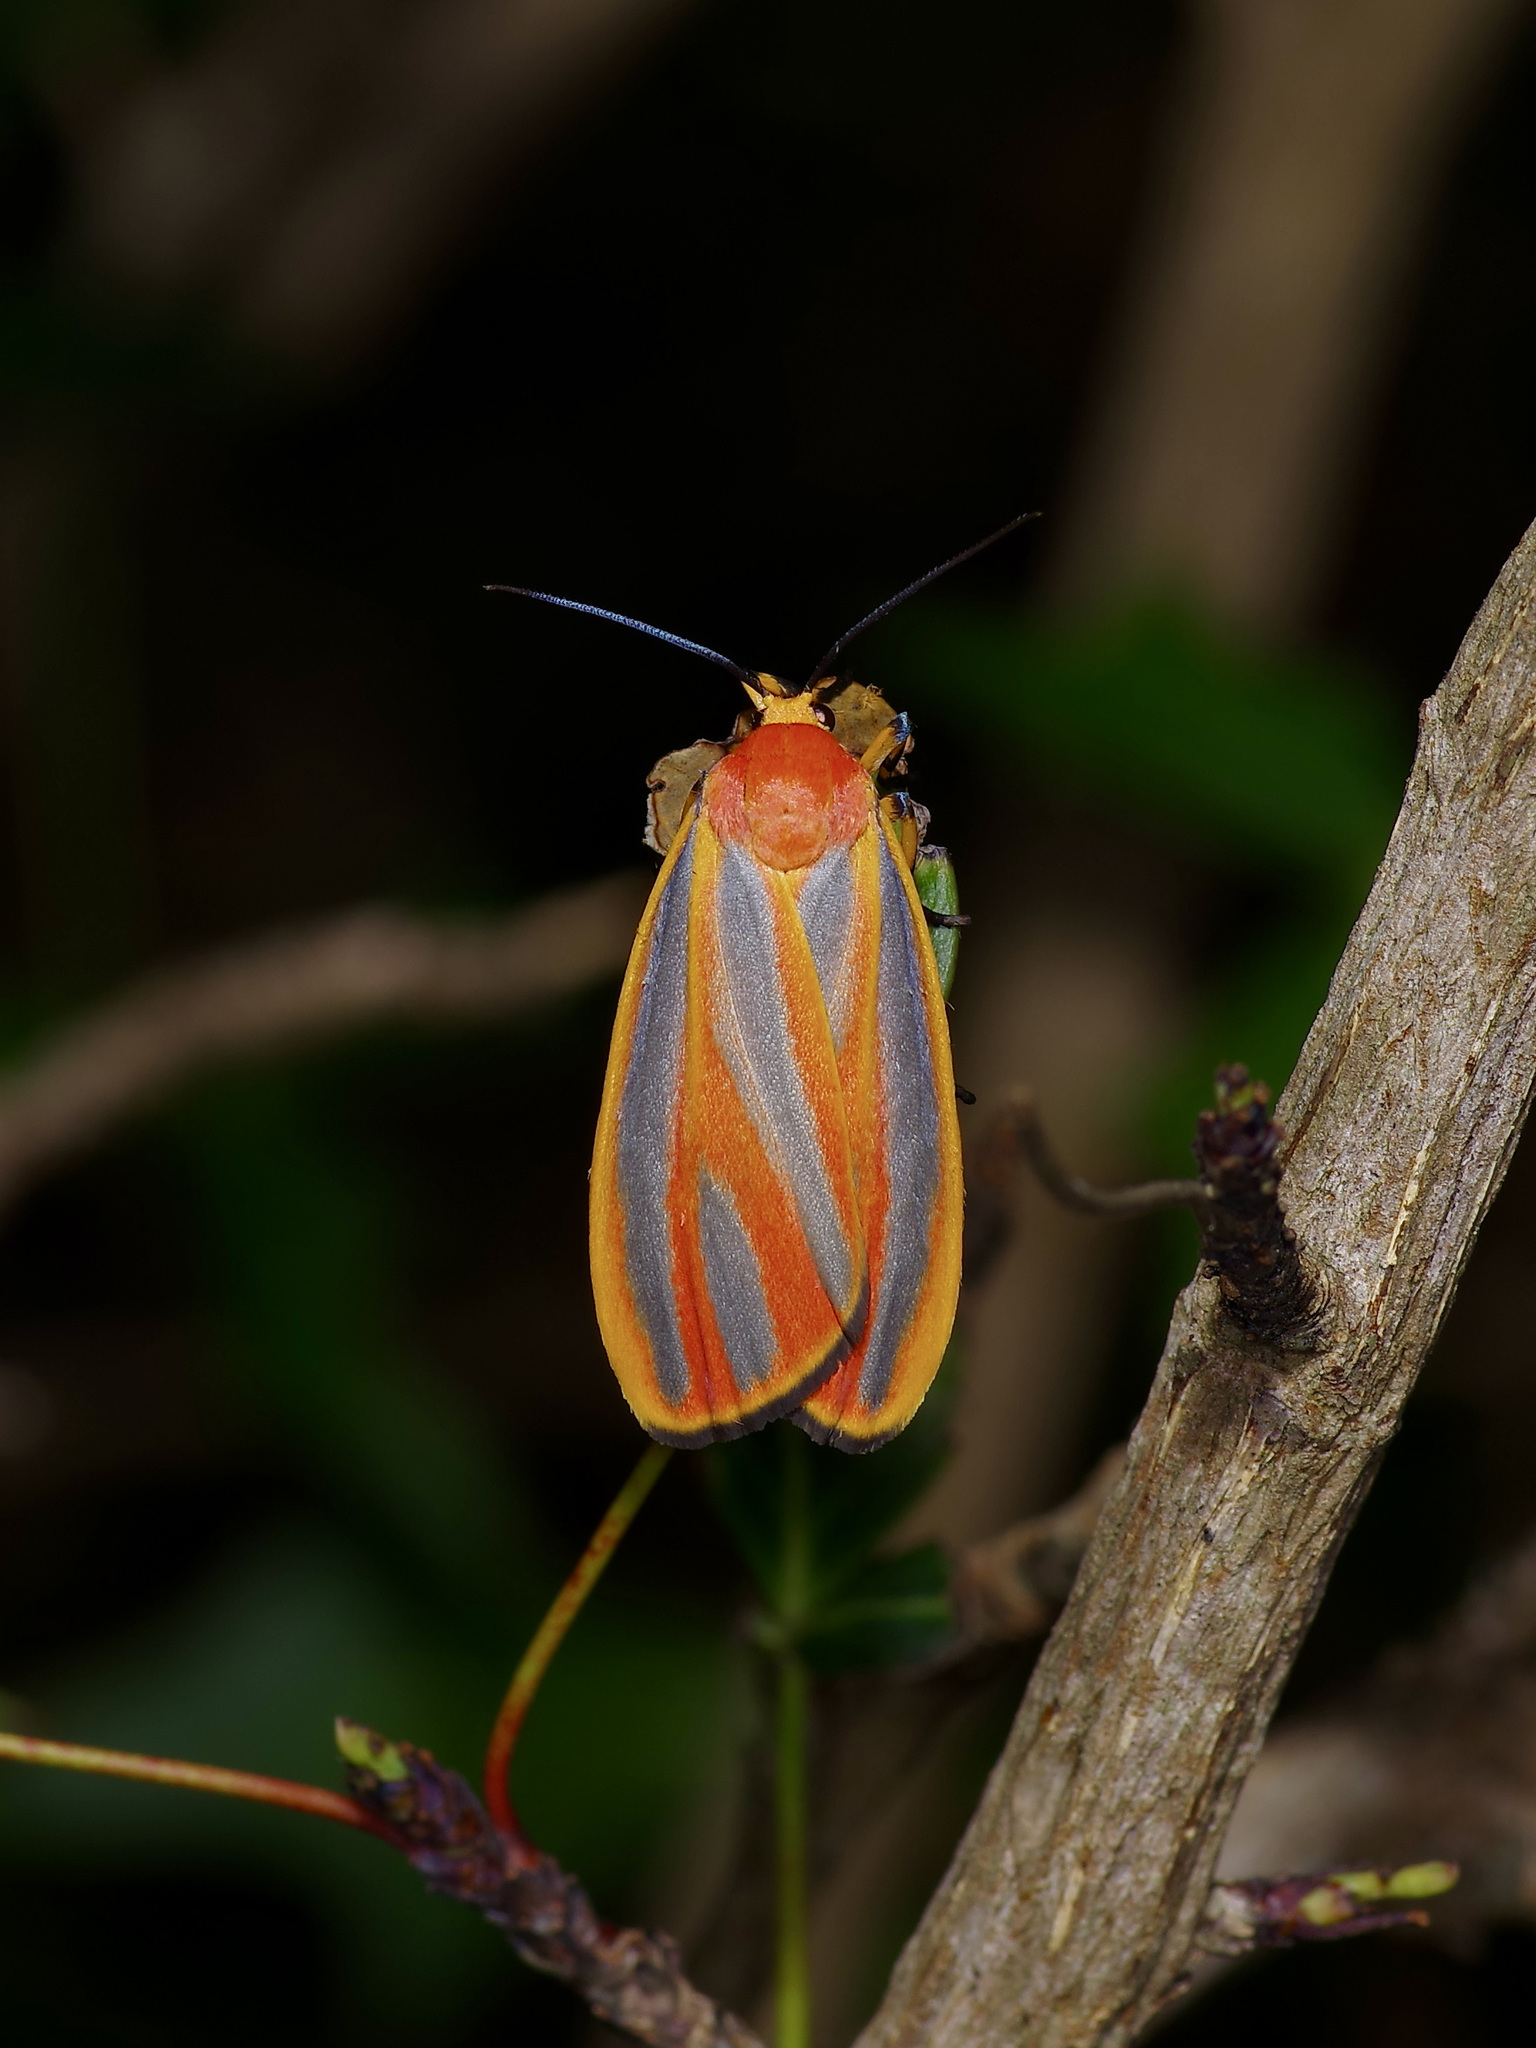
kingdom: Animalia
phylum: Arthropoda
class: Insecta
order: Lepidoptera
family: Erebidae
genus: Hypoprepia
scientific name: Hypoprepia fucosa
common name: Painted lichen moth
